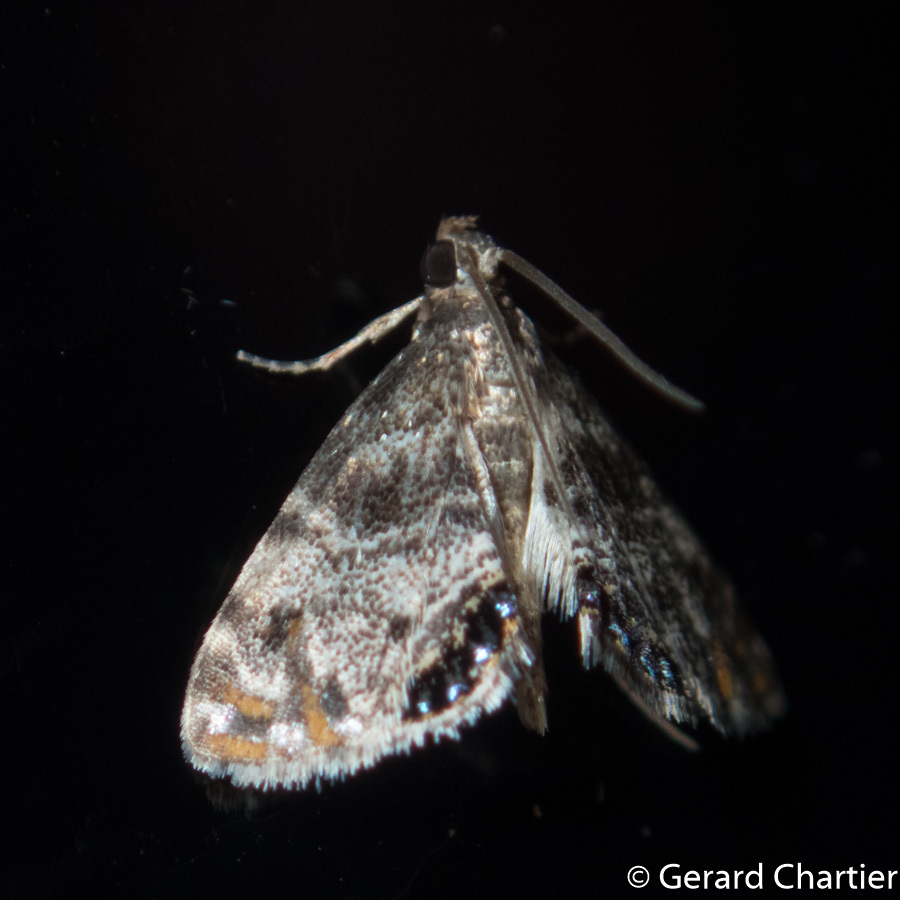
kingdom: Animalia
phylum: Arthropoda
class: Insecta
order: Lepidoptera
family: Crambidae
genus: Paracataclysta
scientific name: Paracataclysta fuscalis
